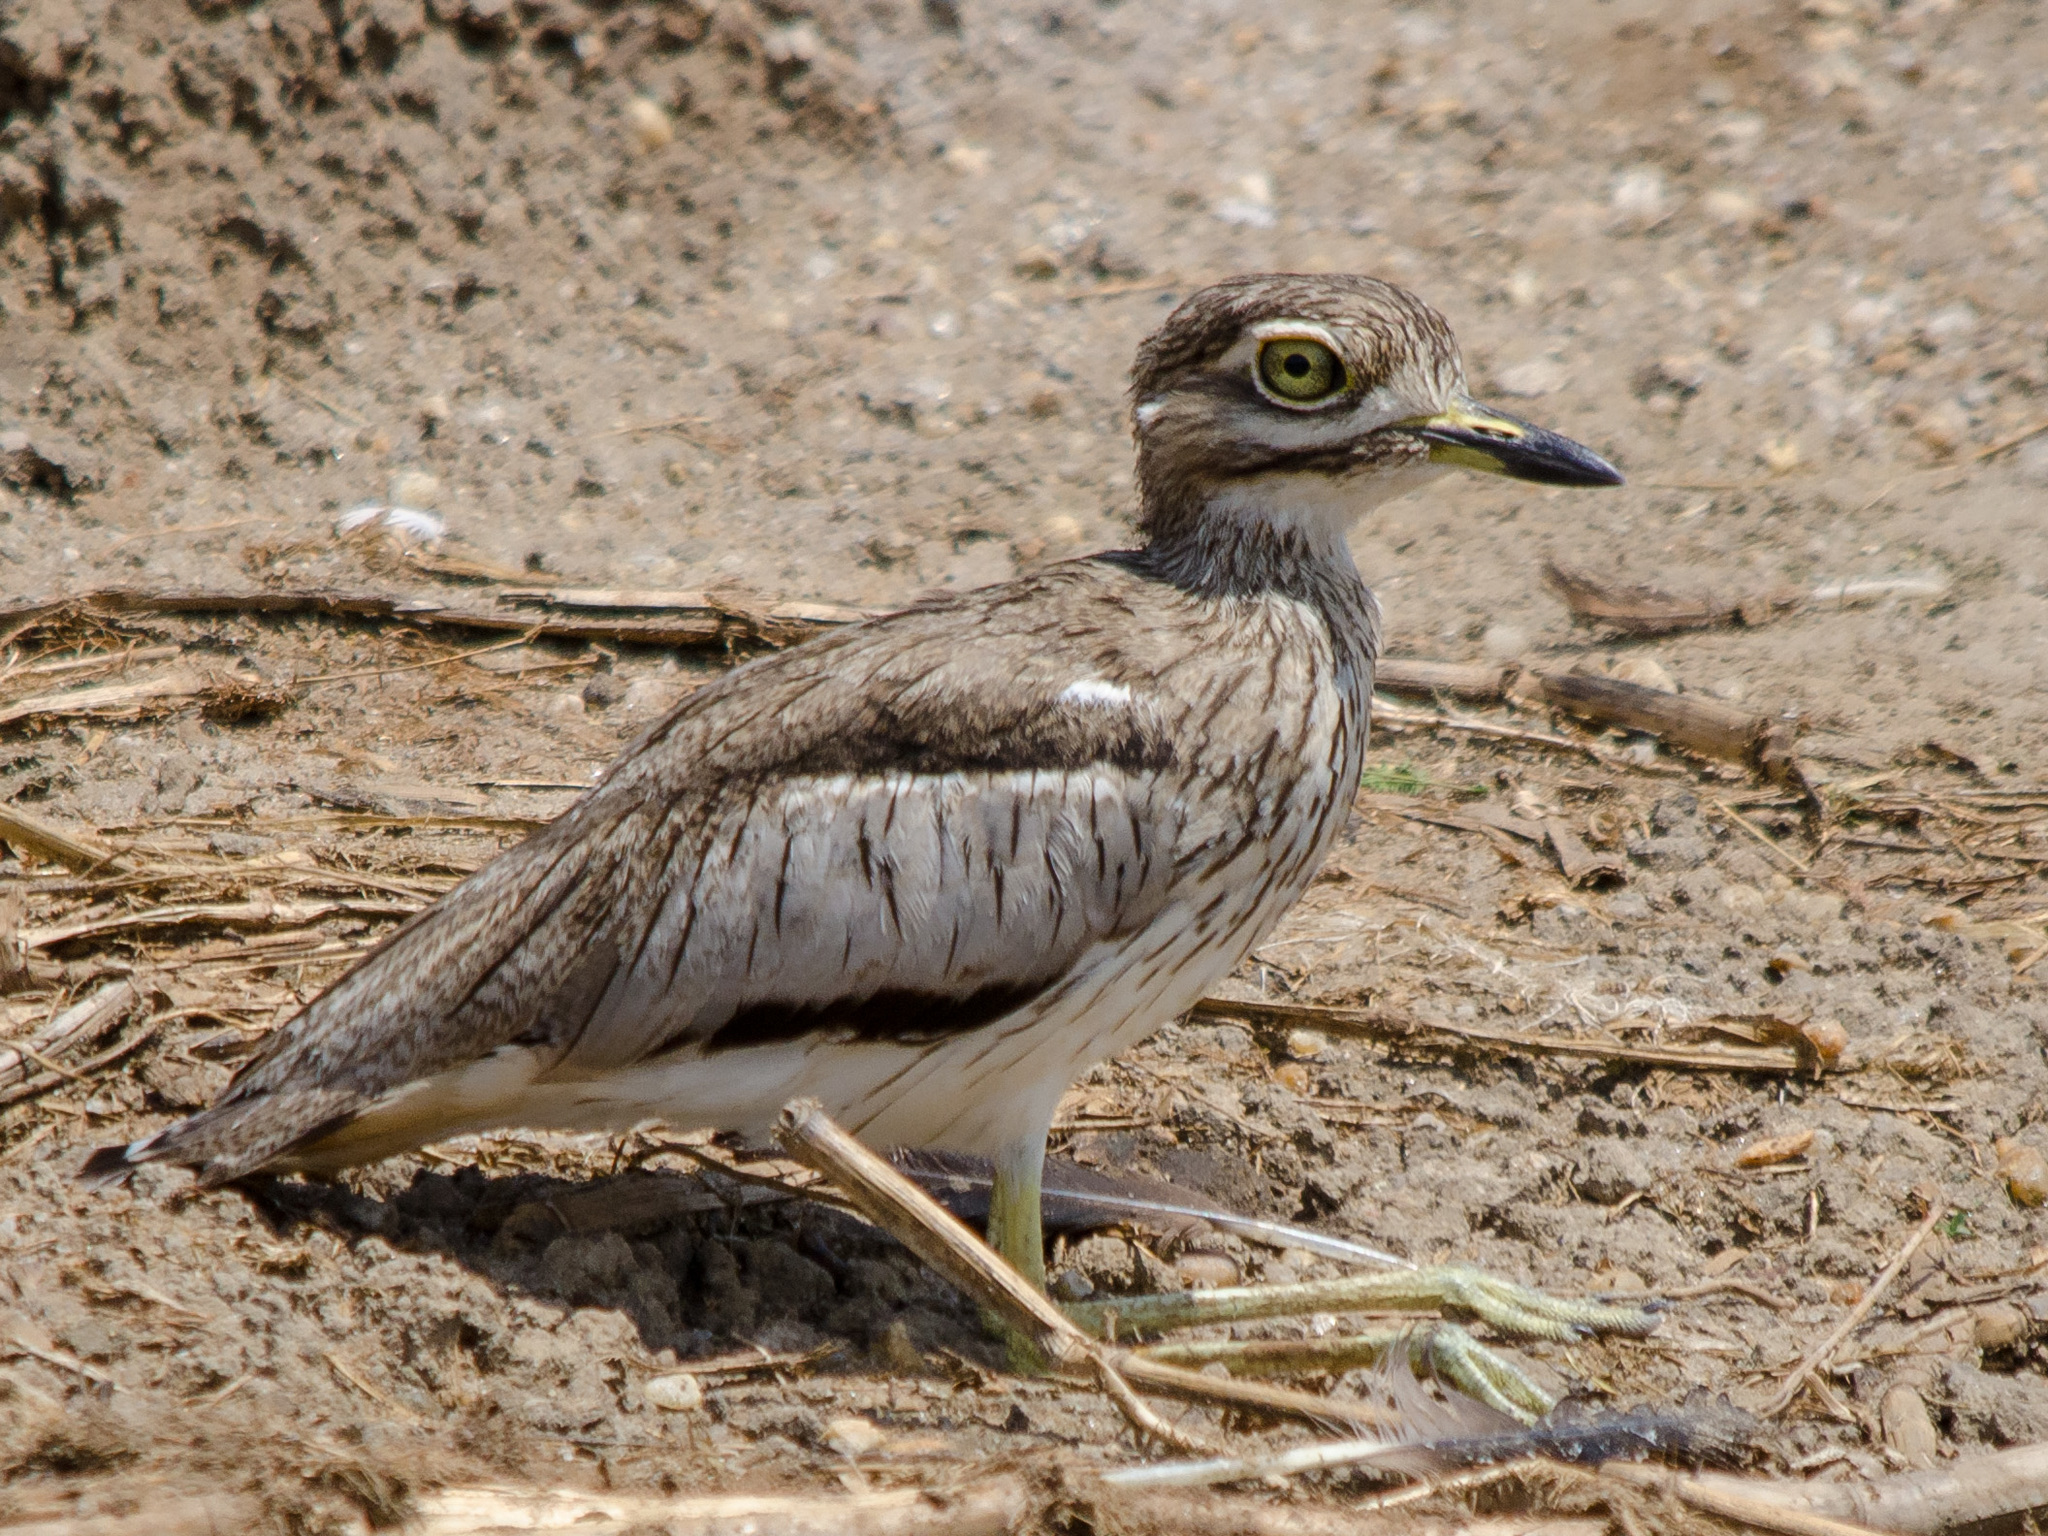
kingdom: Animalia
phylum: Chordata
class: Aves
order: Charadriiformes
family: Burhinidae
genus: Burhinus
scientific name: Burhinus vermiculatus
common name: Water thick-knee
